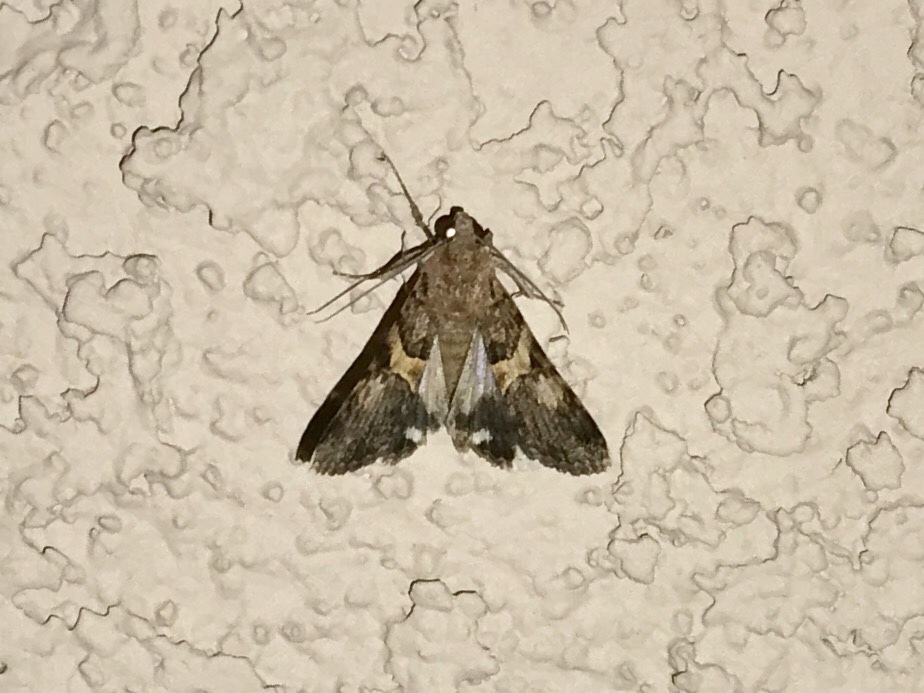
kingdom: Animalia
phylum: Arthropoda
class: Insecta
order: Lepidoptera
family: Erebidae
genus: Melipotis
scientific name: Melipotis jucunda
